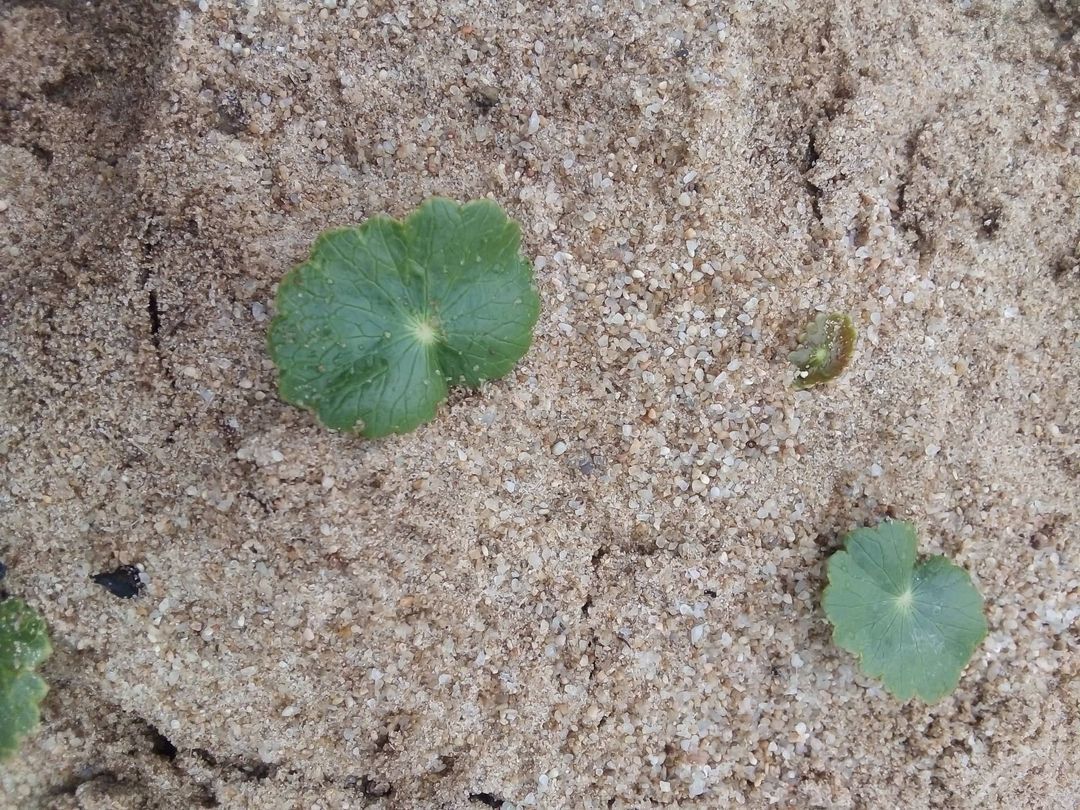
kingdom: Plantae
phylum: Tracheophyta
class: Magnoliopsida
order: Apiales
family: Araliaceae
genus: Hydrocotyle
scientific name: Hydrocotyle bonariensis
